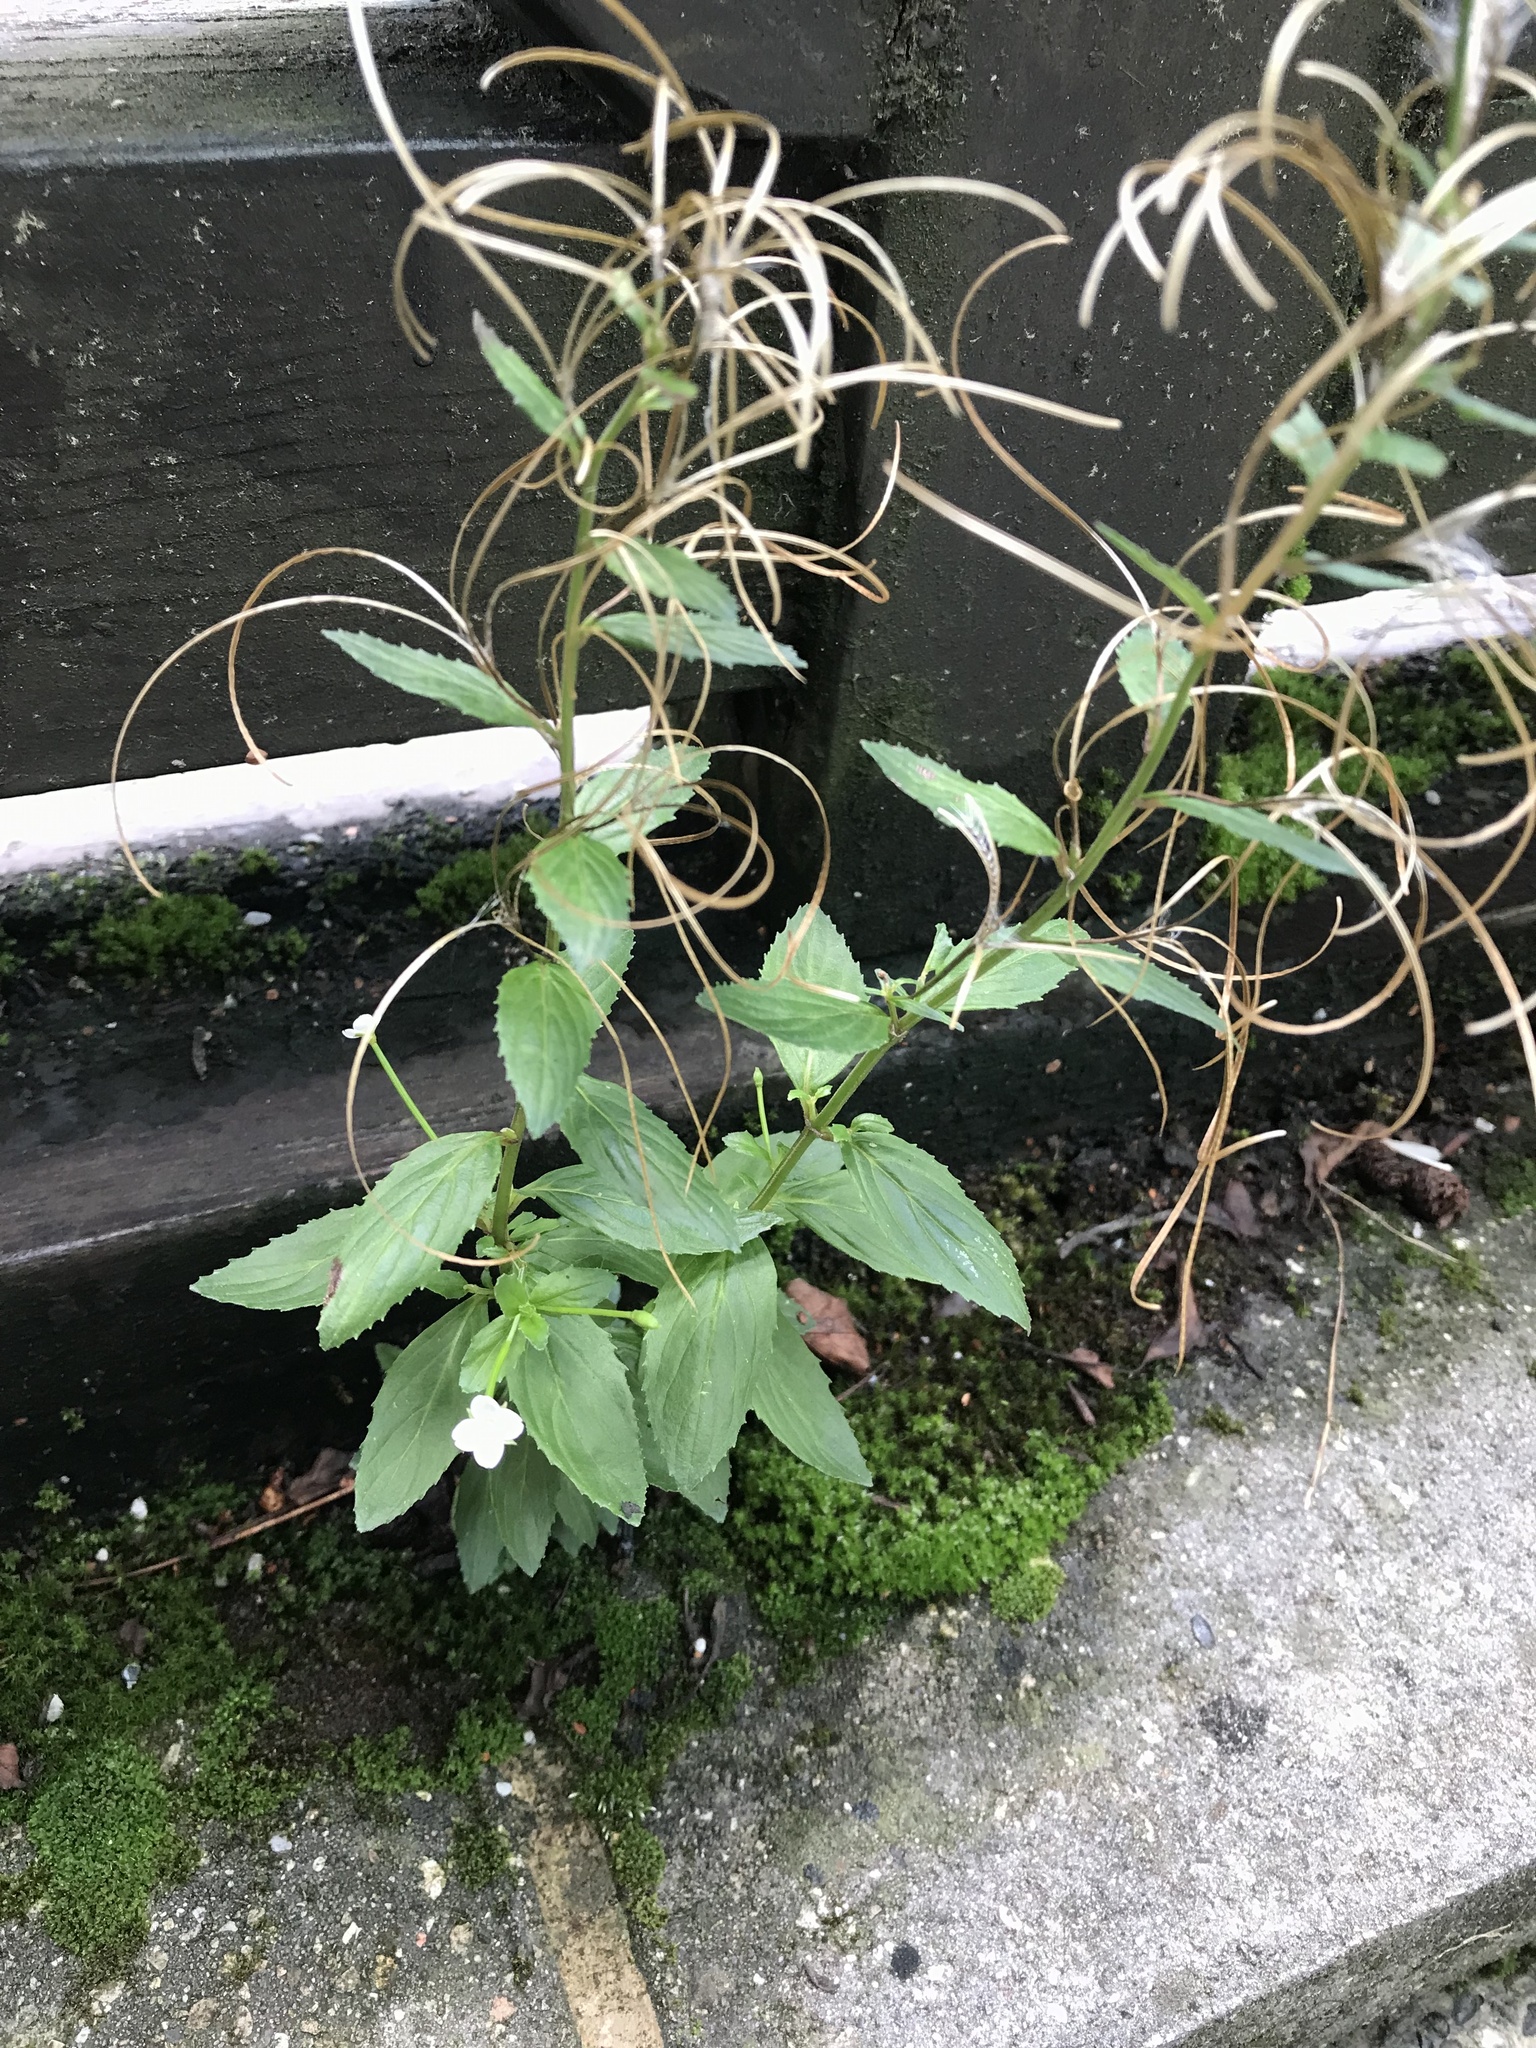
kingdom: Plantae
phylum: Tracheophyta
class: Magnoliopsida
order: Myrtales
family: Onagraceae
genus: Epilobium
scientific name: Epilobium amurense
